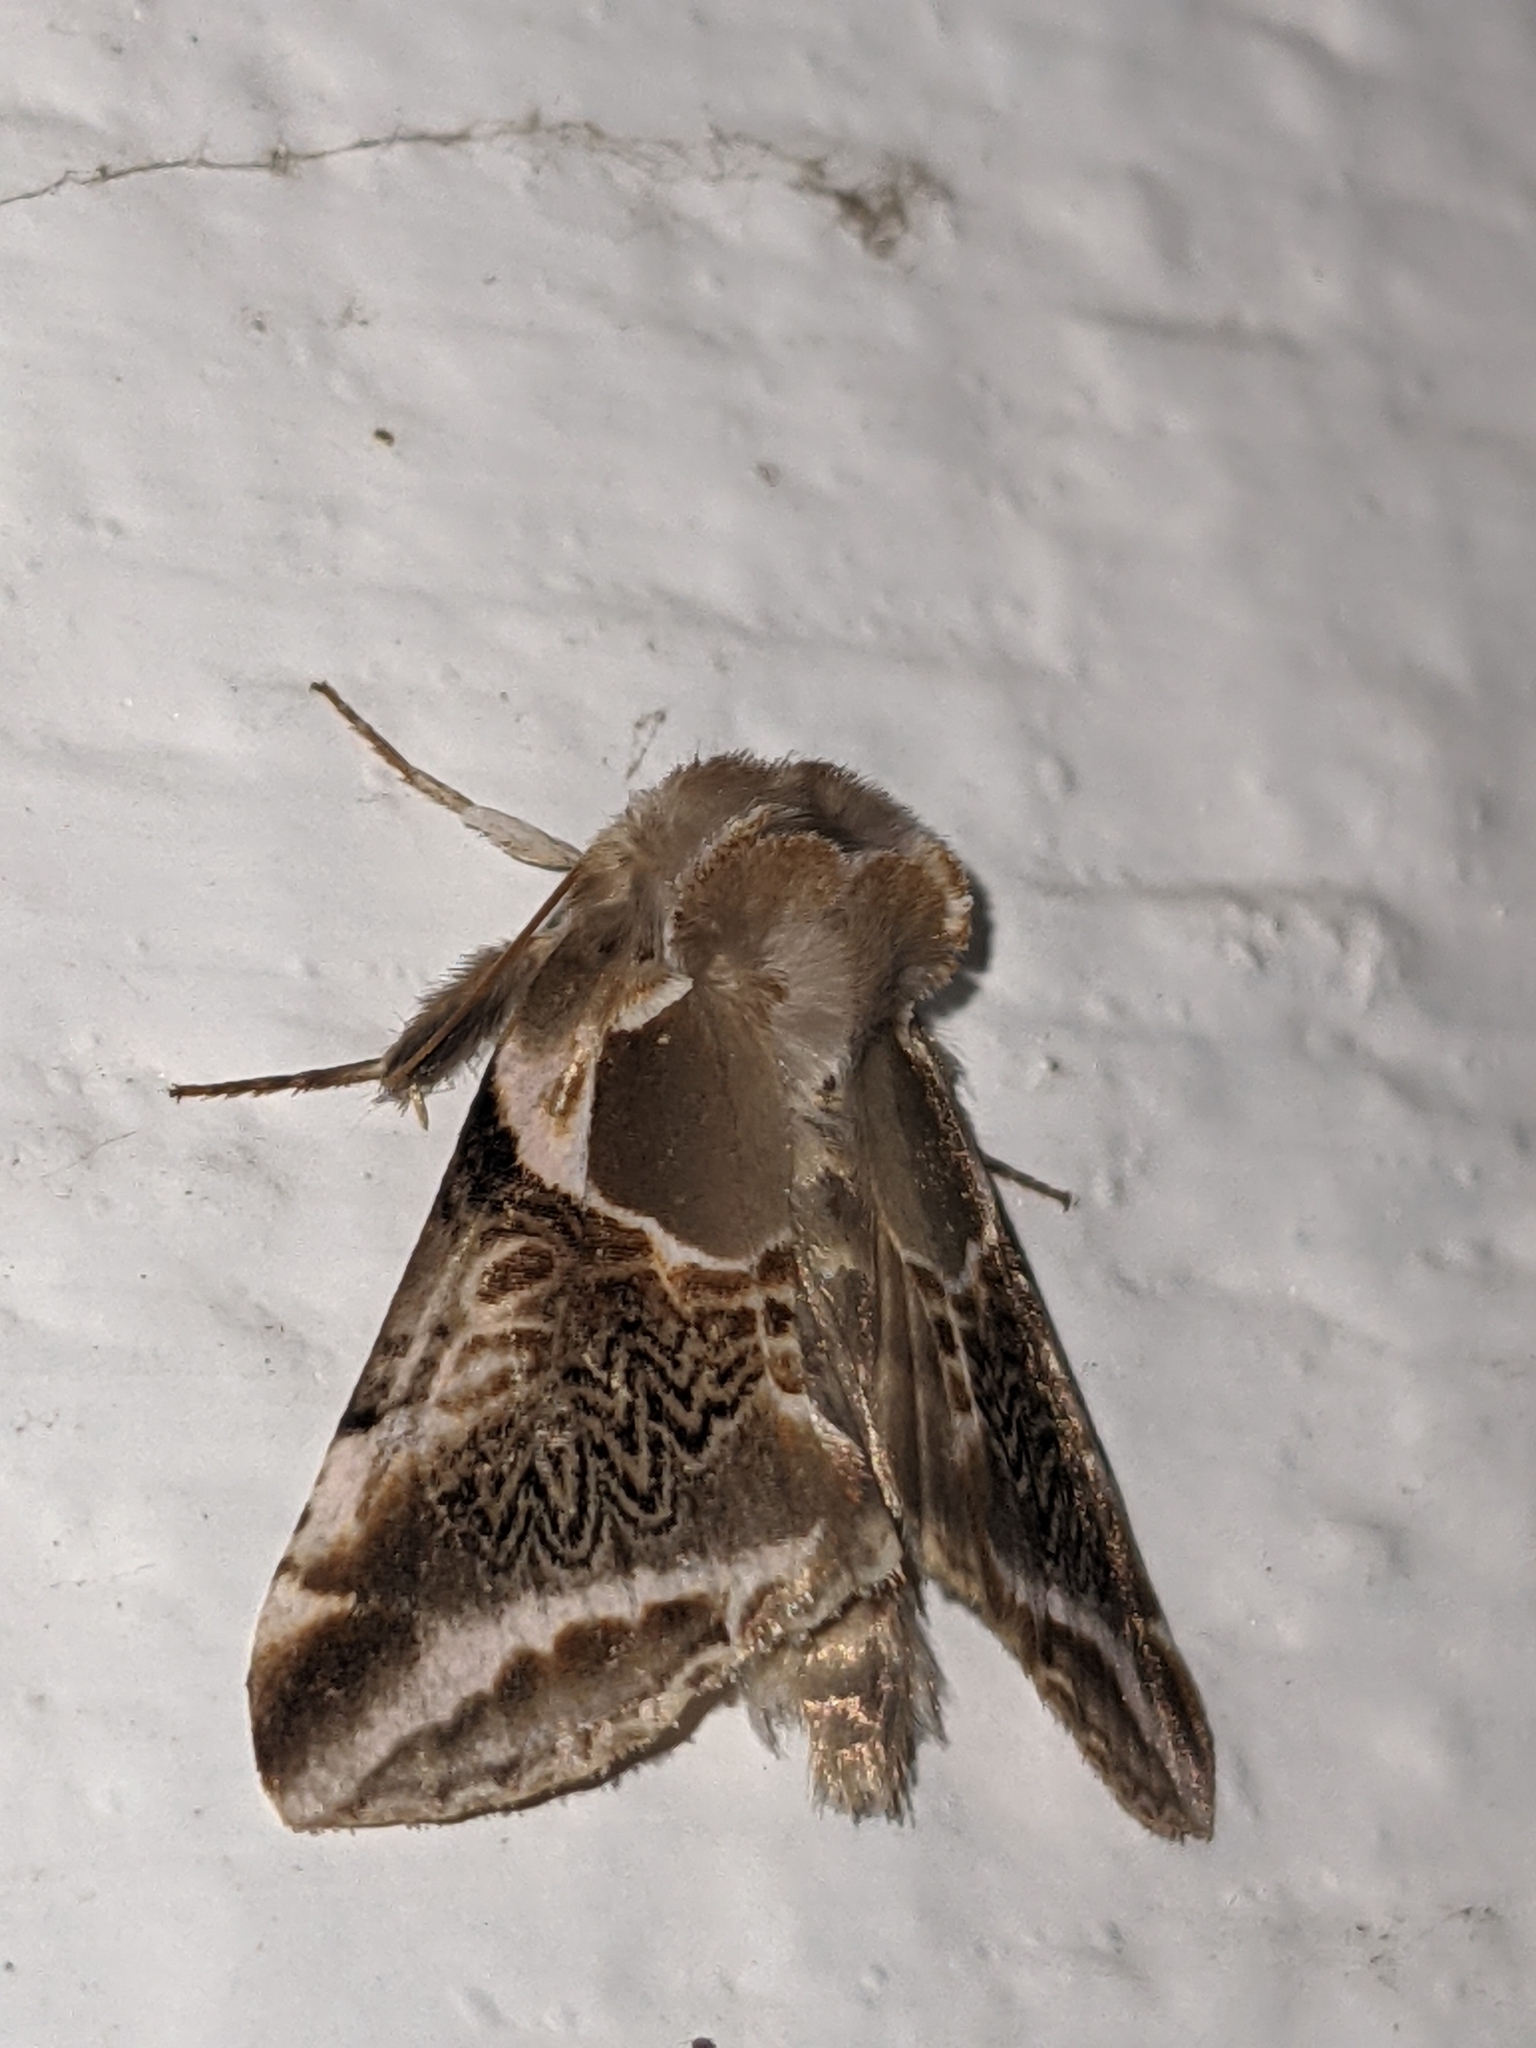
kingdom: Animalia
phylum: Arthropoda
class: Insecta
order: Lepidoptera
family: Drepanidae
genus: Habrosyne
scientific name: Habrosyne scripta
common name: Lettered habrosyne moth
